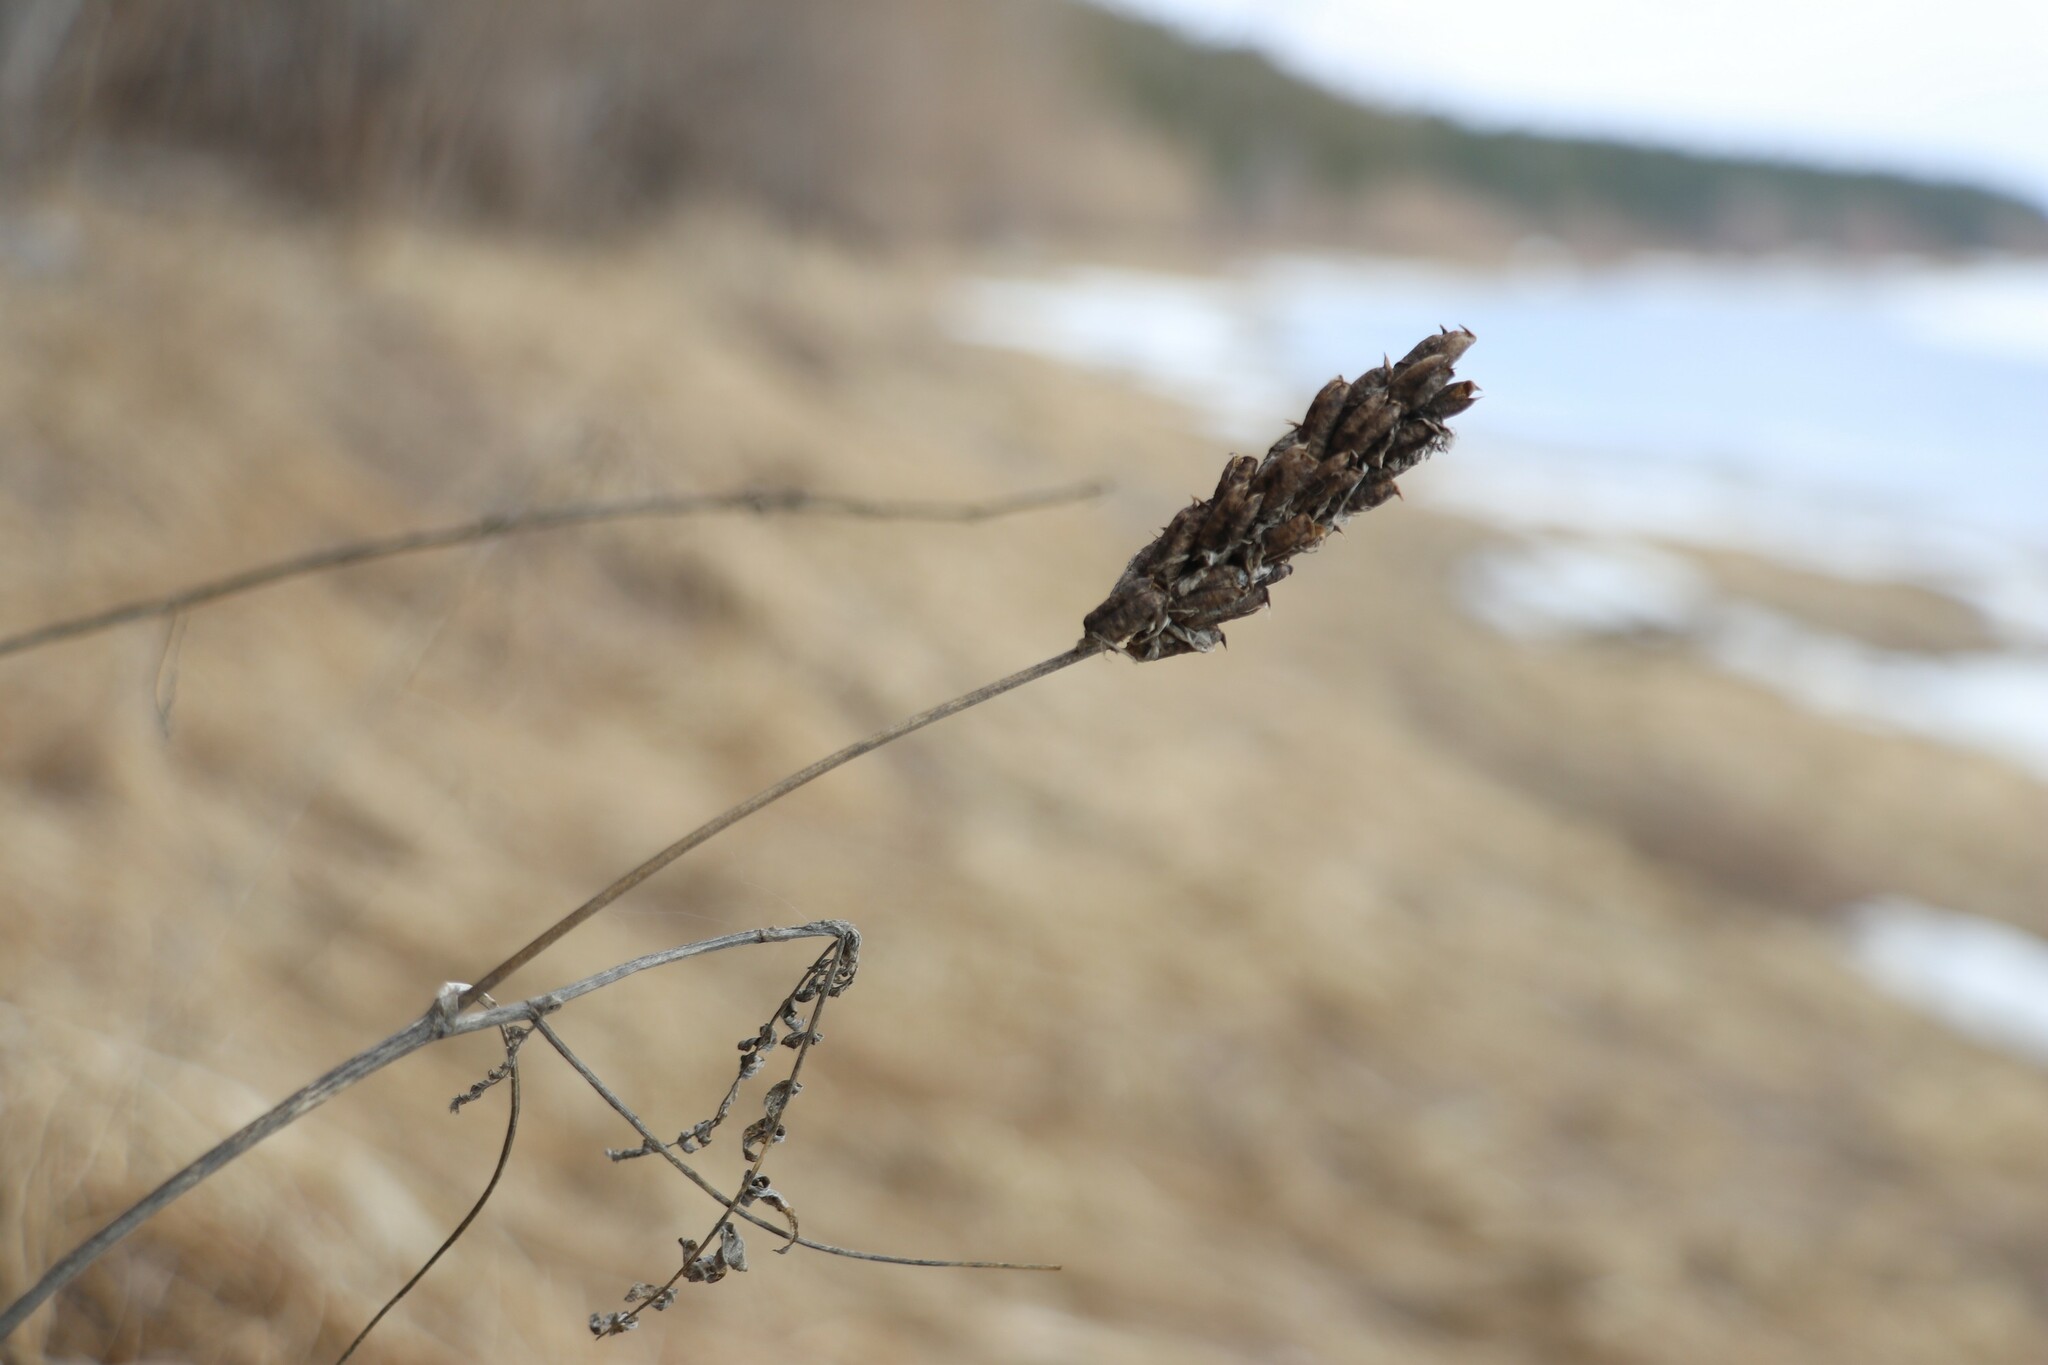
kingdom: Plantae
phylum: Tracheophyta
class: Magnoliopsida
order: Fabales
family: Fabaceae
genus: Astragalus
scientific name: Astragalus uliginosus
